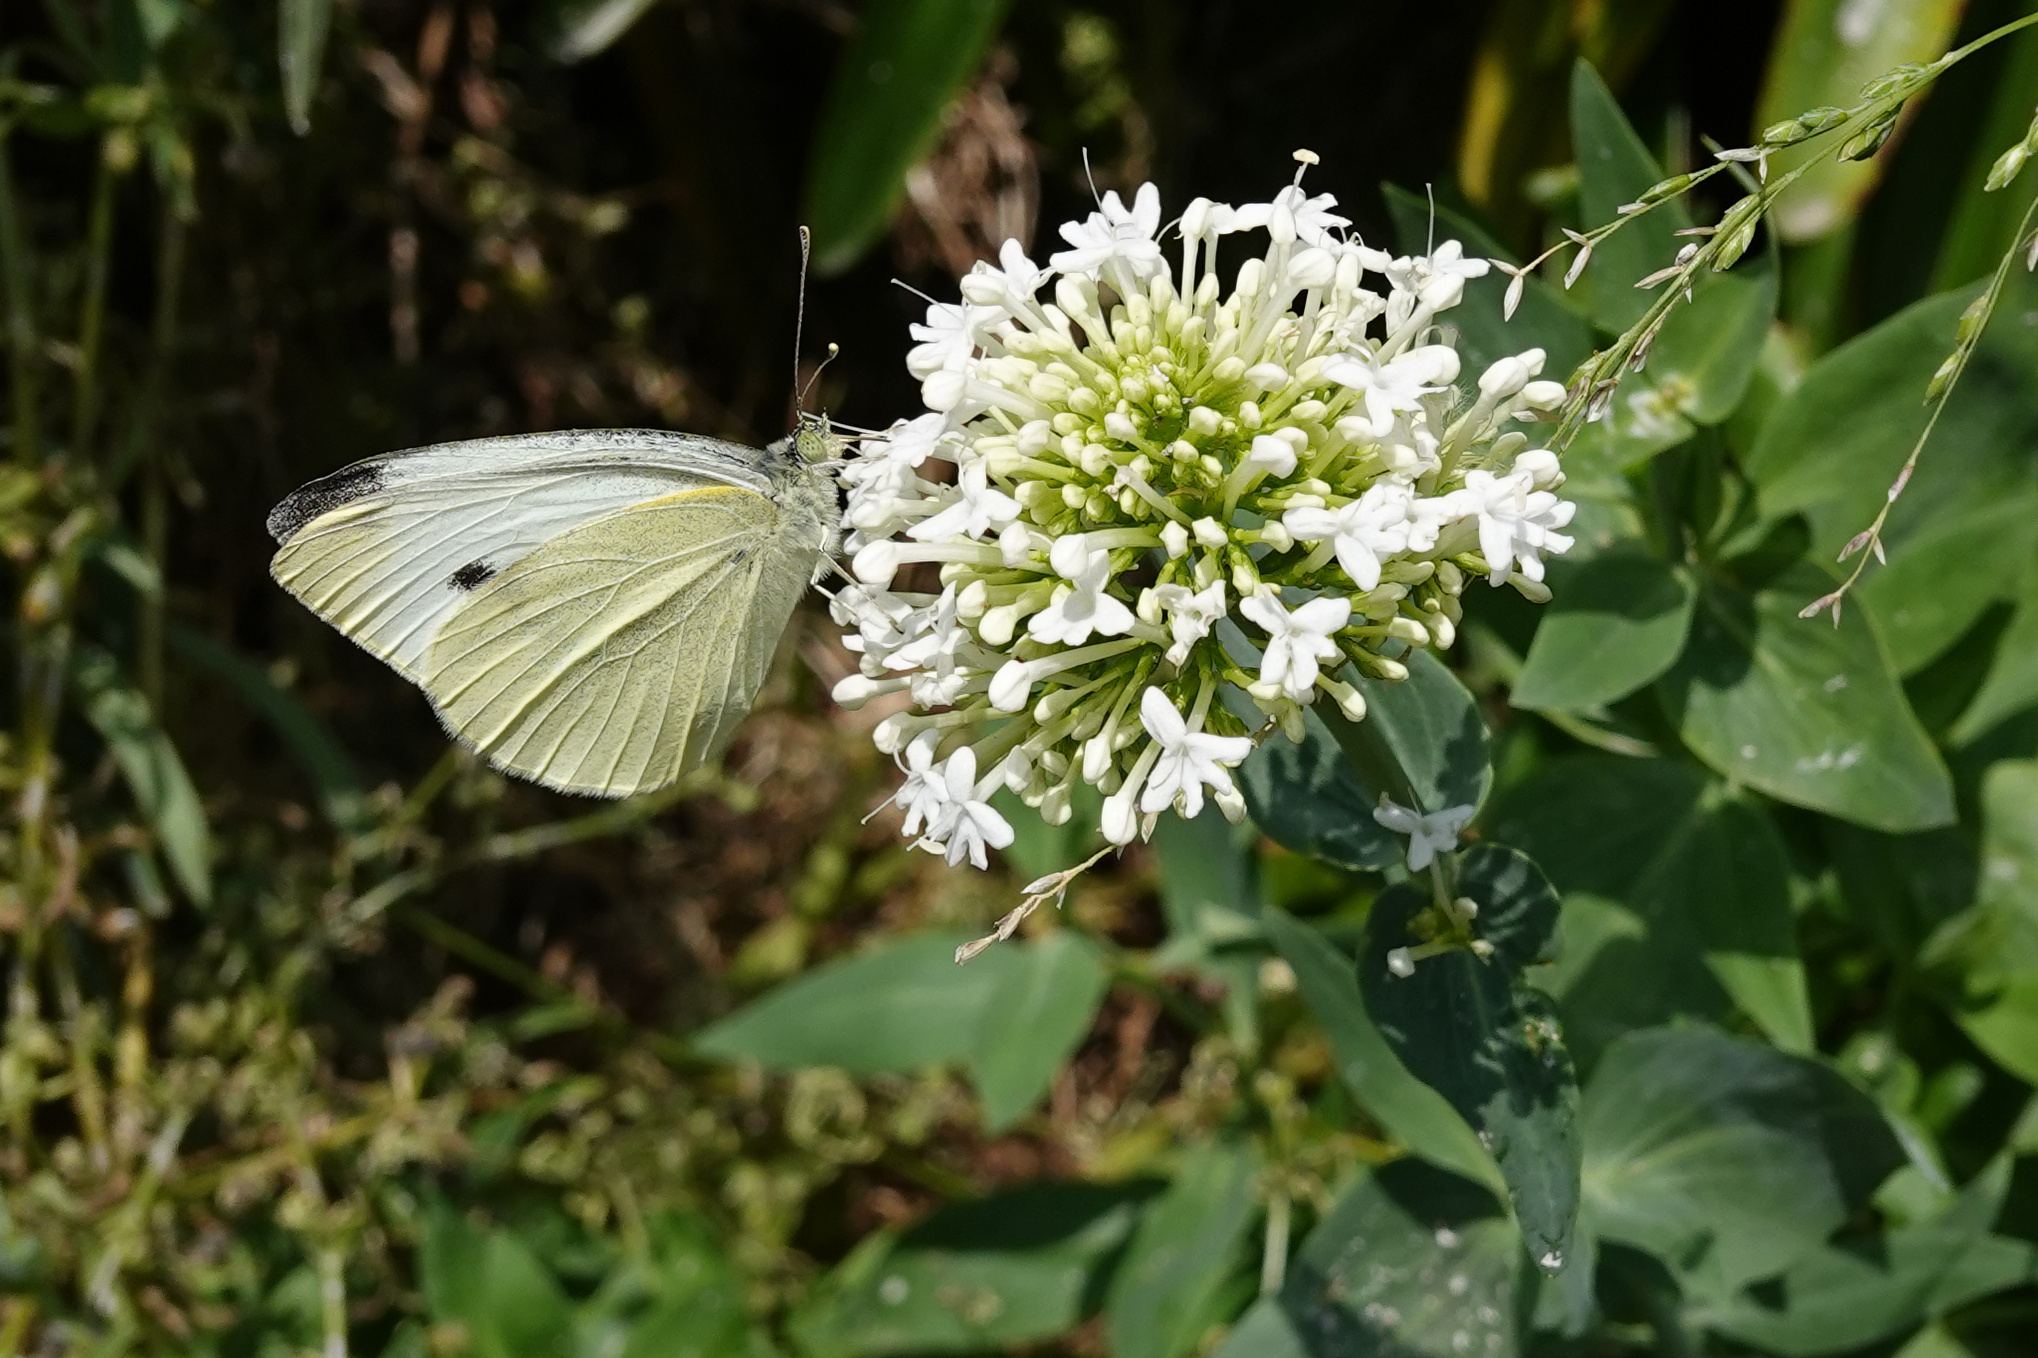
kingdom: Animalia
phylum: Arthropoda
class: Insecta
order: Lepidoptera
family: Pieridae
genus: Pieris
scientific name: Pieris rapae
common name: Small white
